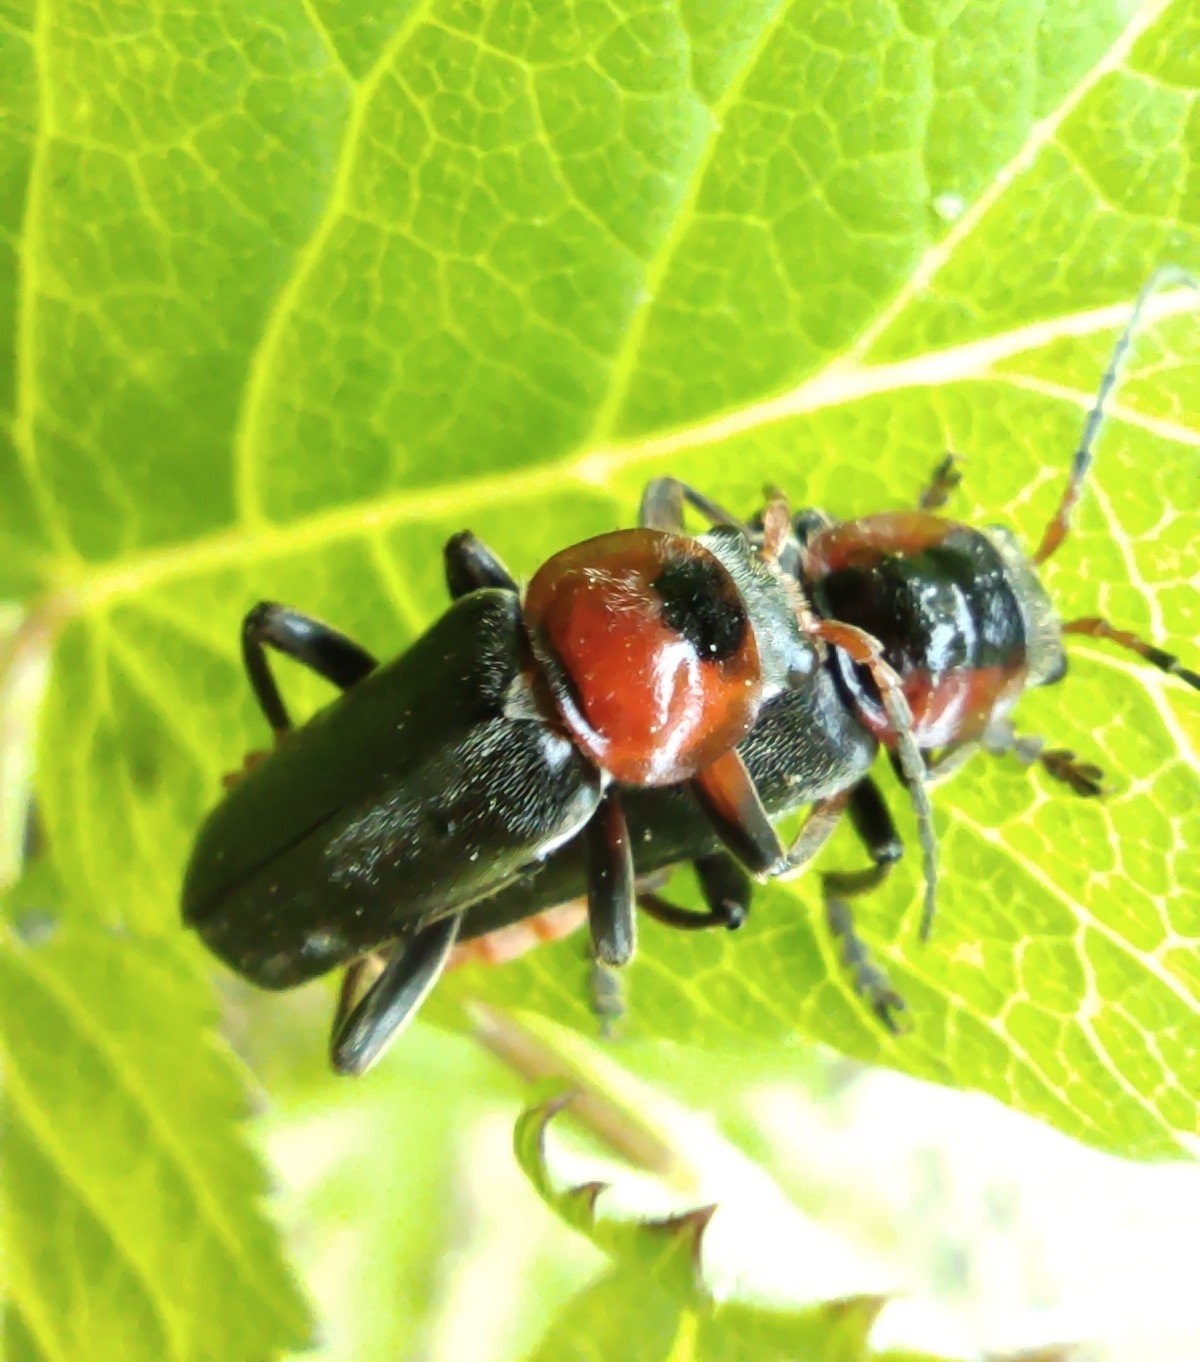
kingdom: Animalia
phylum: Arthropoda
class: Insecta
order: Coleoptera
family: Cantharidae
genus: Cantharis
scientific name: Cantharis fusca
